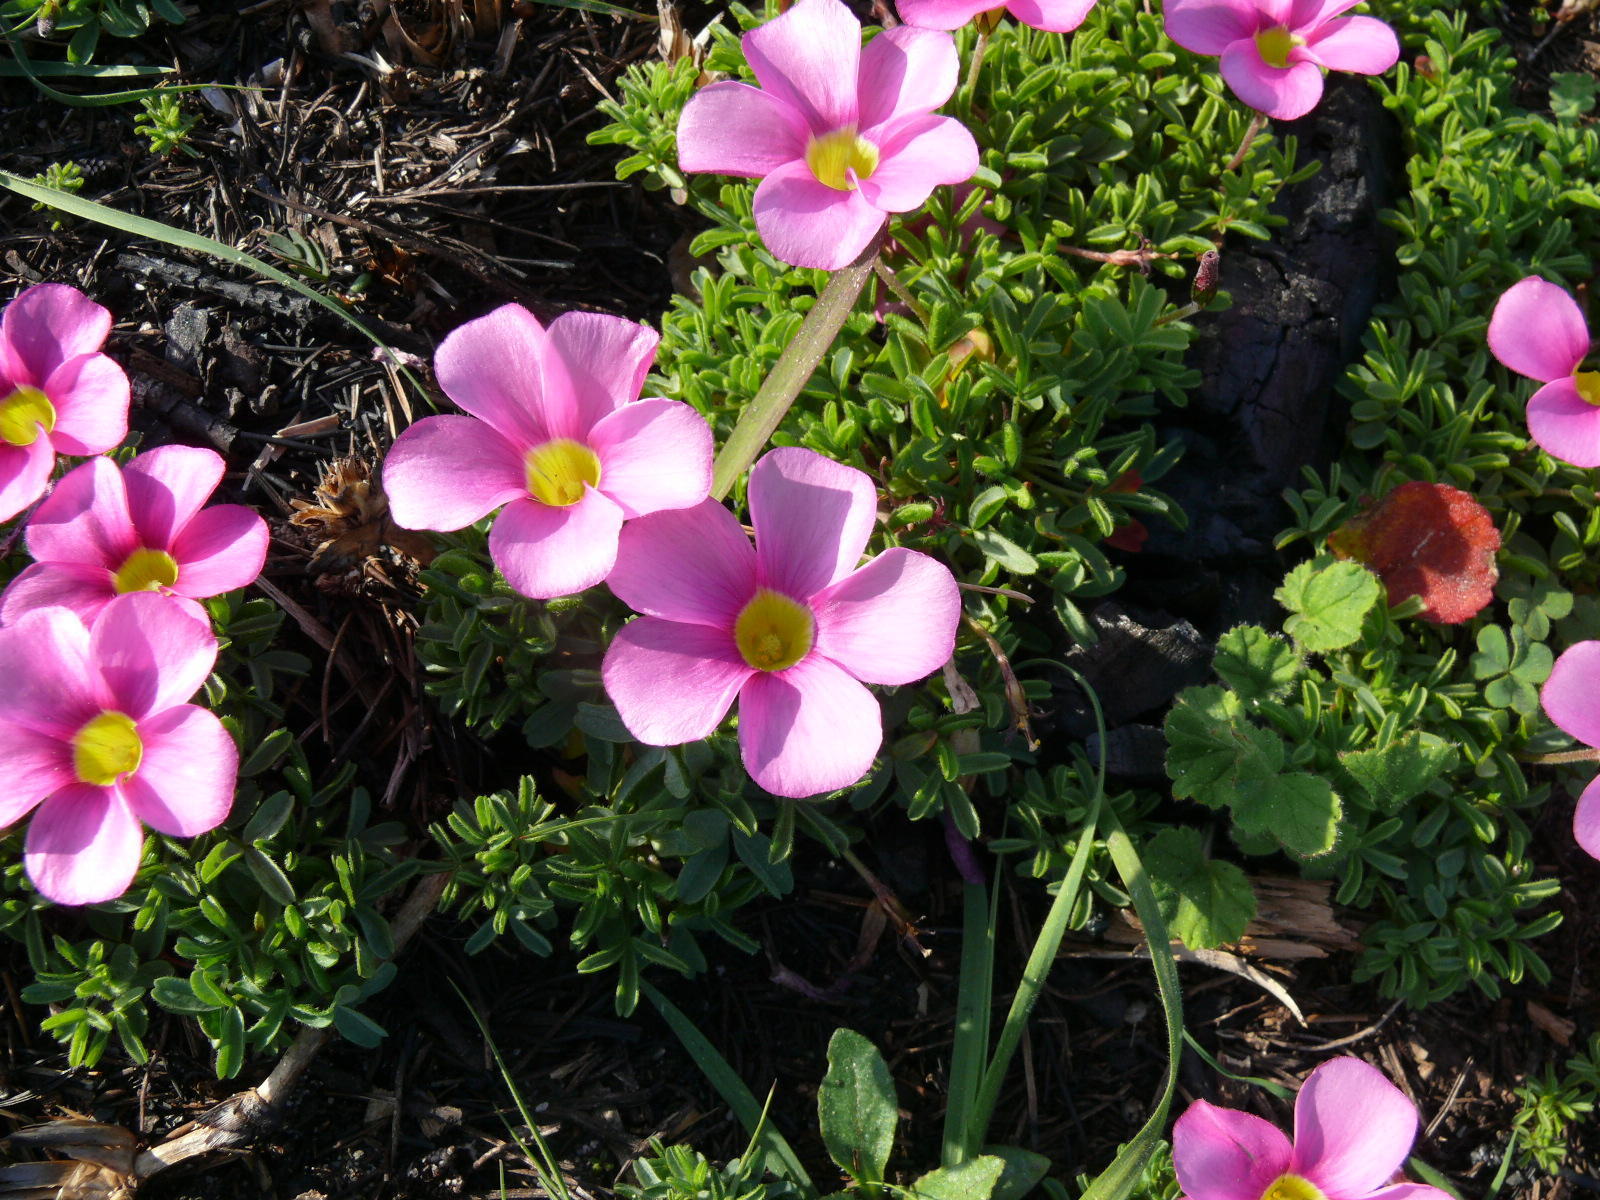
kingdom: Plantae
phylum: Tracheophyta
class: Magnoliopsida
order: Oxalidales
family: Oxalidaceae
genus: Oxalis
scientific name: Oxalis glabra
